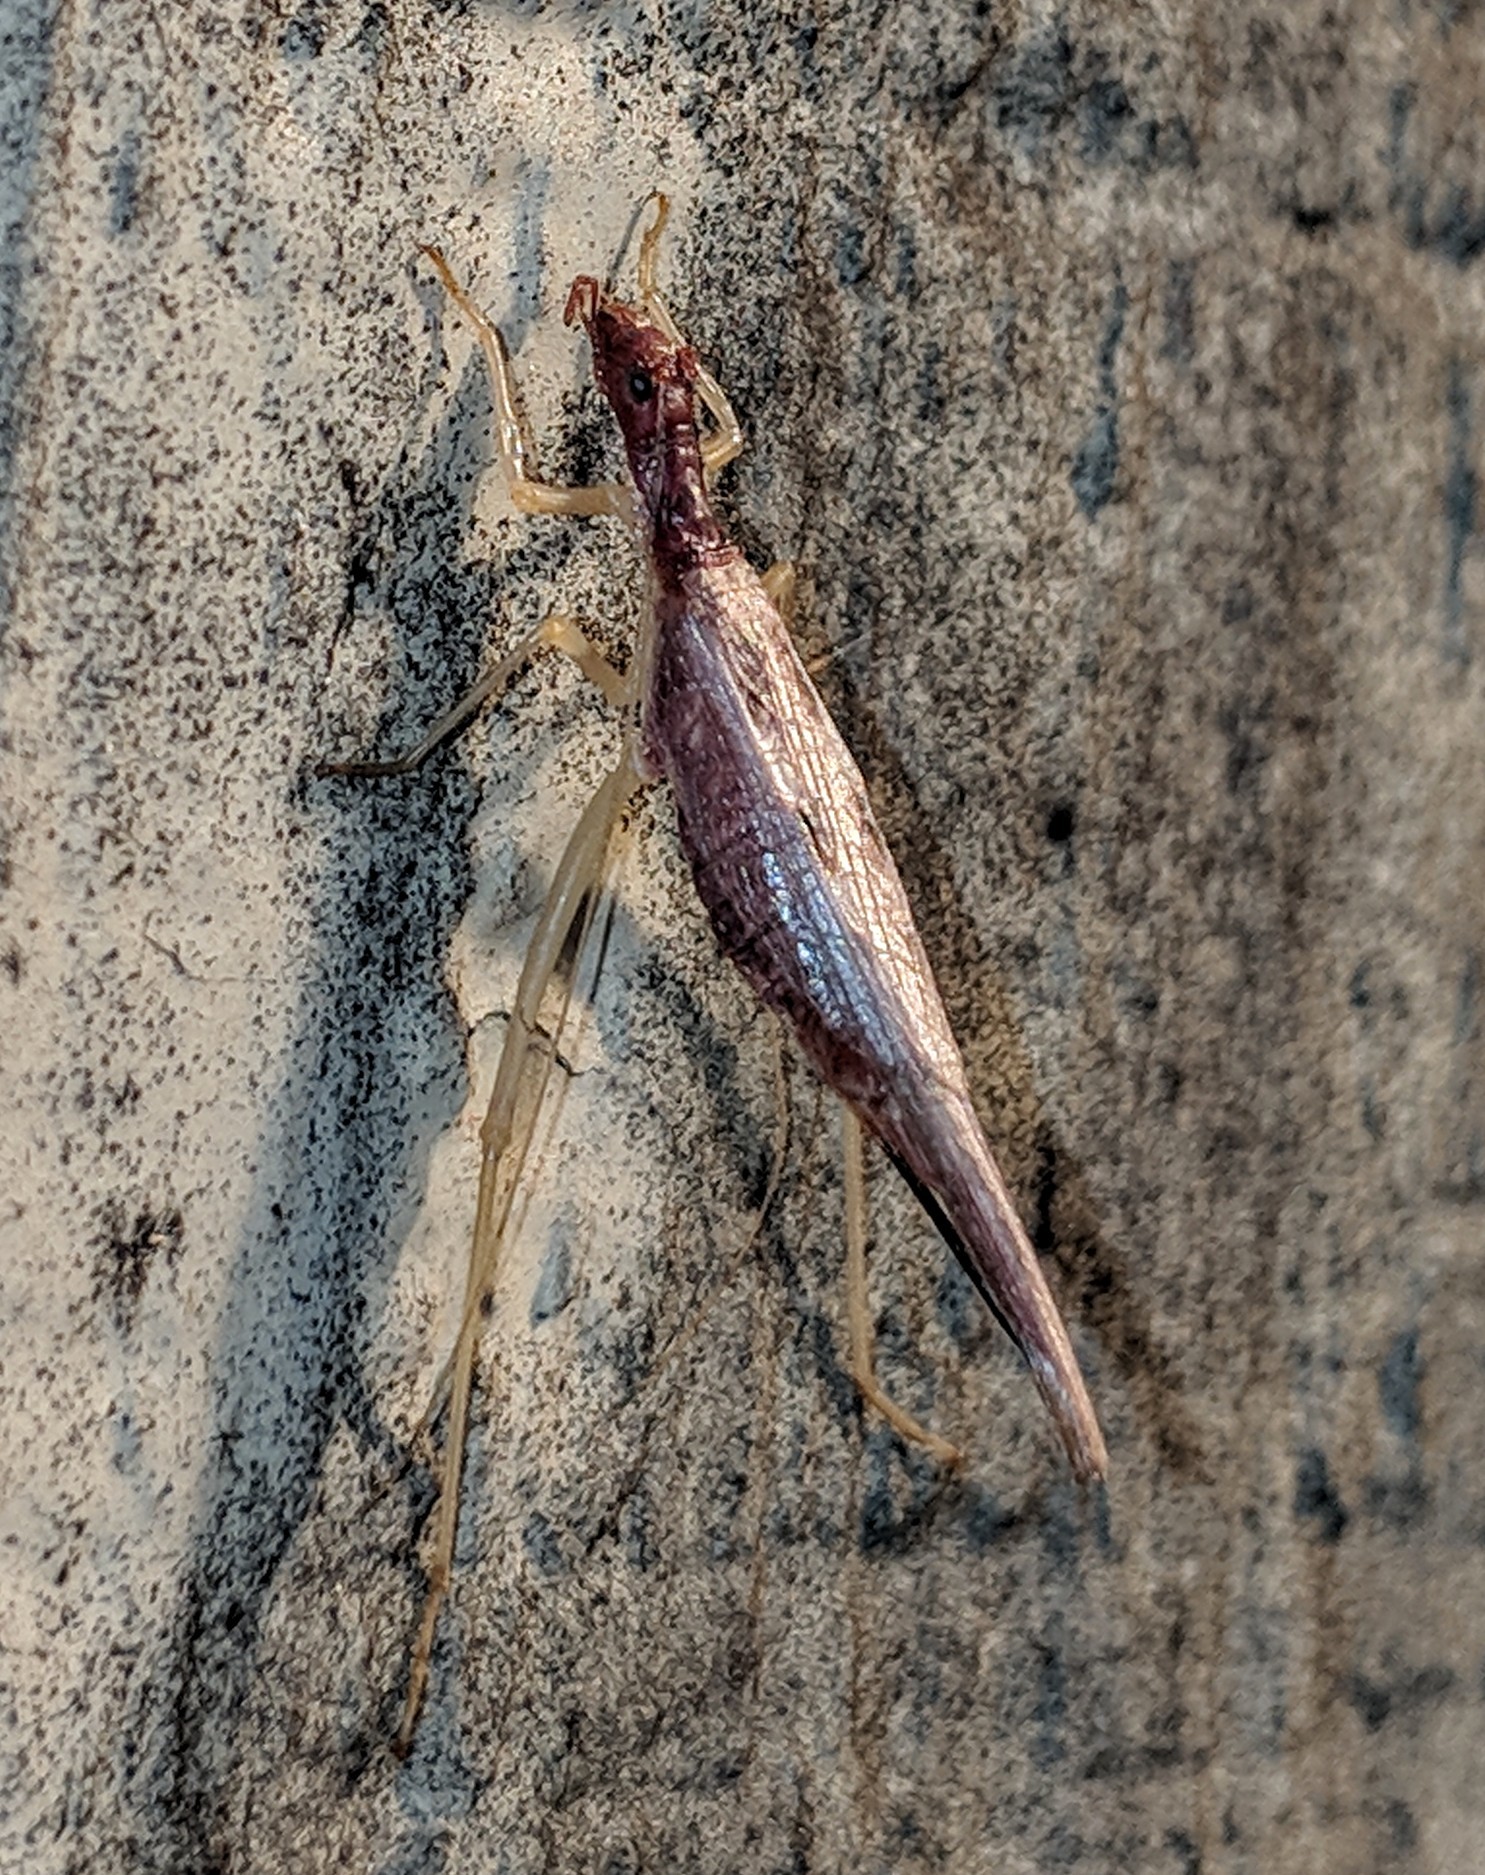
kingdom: Animalia
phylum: Arthropoda
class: Insecta
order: Orthoptera
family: Gryllidae
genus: Neoxabea
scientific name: Neoxabea bipunctata
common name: Two-spotted tree cricket
